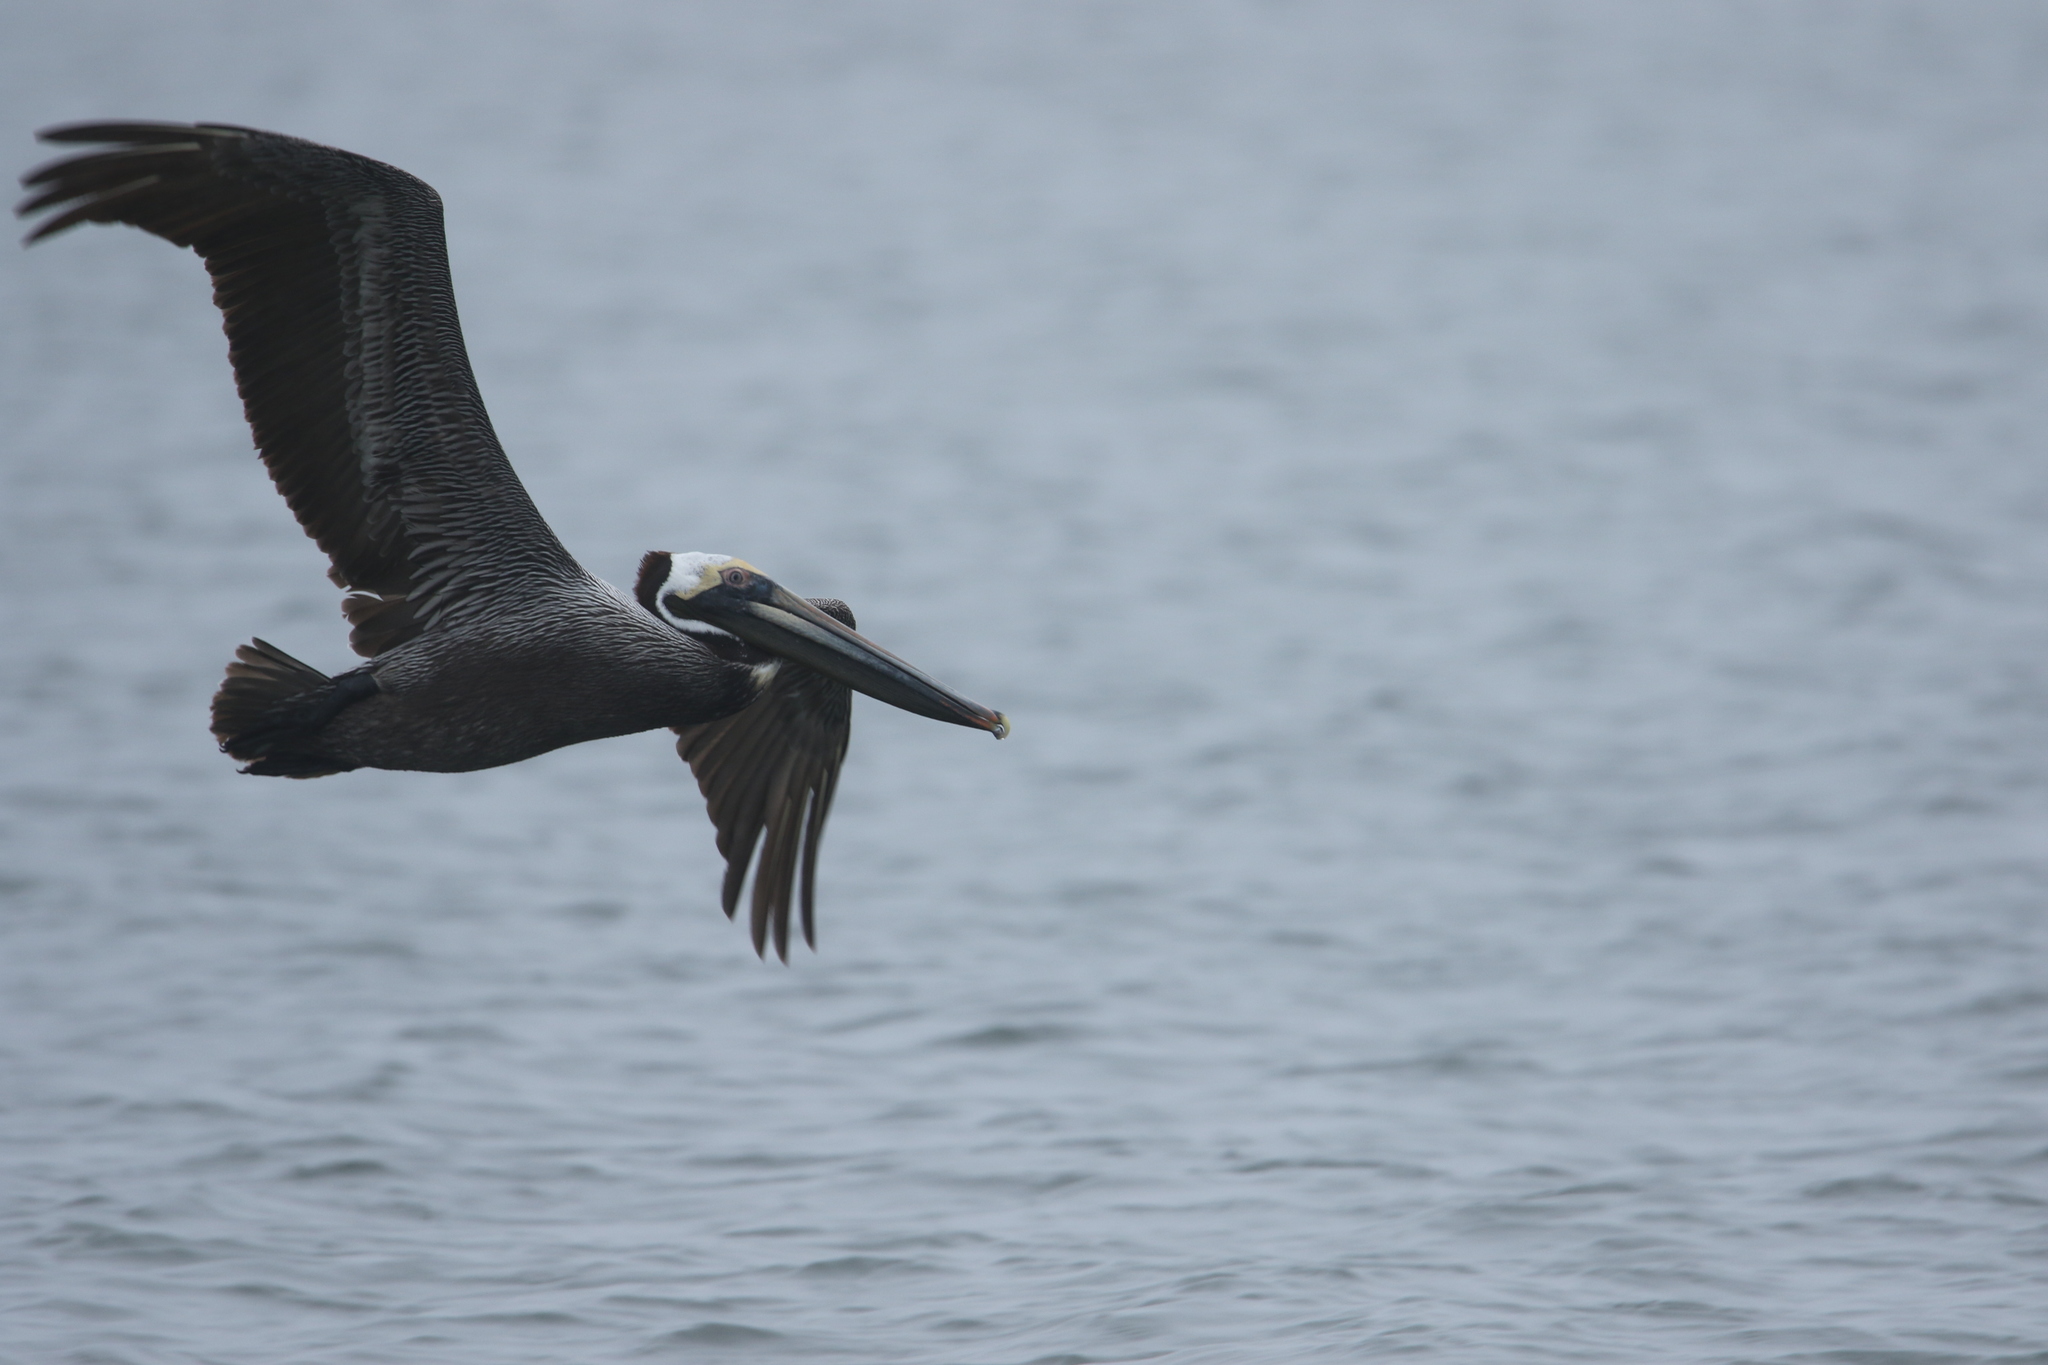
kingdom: Animalia
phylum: Chordata
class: Aves
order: Pelecaniformes
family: Pelecanidae
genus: Pelecanus
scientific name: Pelecanus occidentalis
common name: Brown pelican
